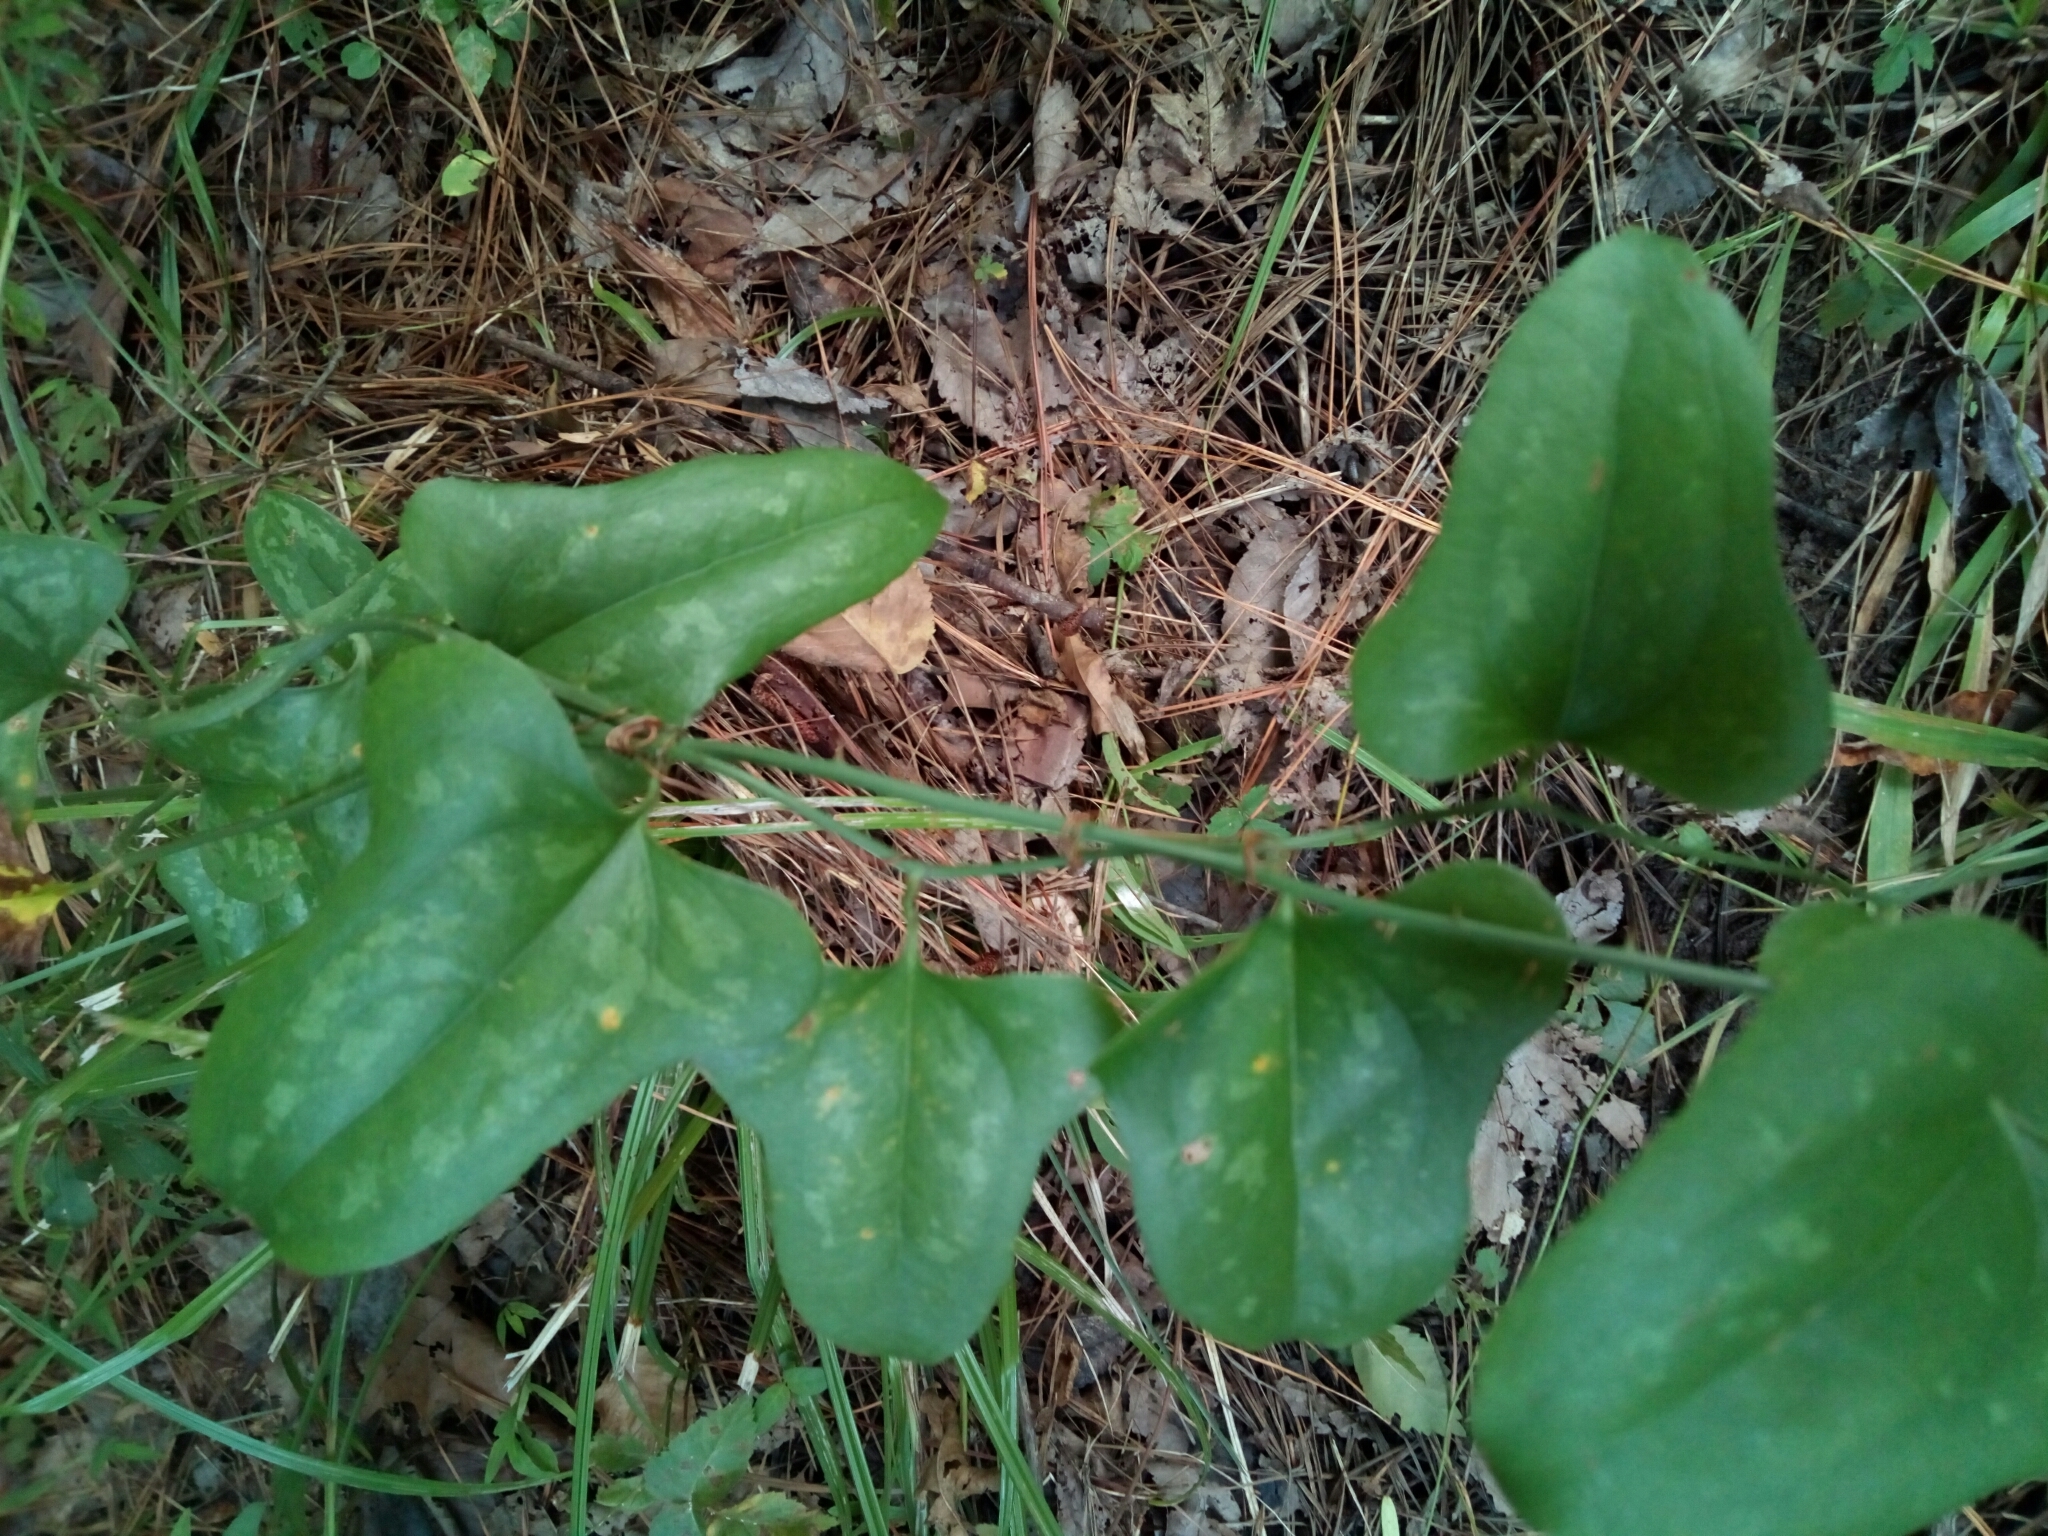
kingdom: Plantae
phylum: Tracheophyta
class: Liliopsida
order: Liliales
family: Smilacaceae
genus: Smilax
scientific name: Smilax bona-nox
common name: Catbrier
